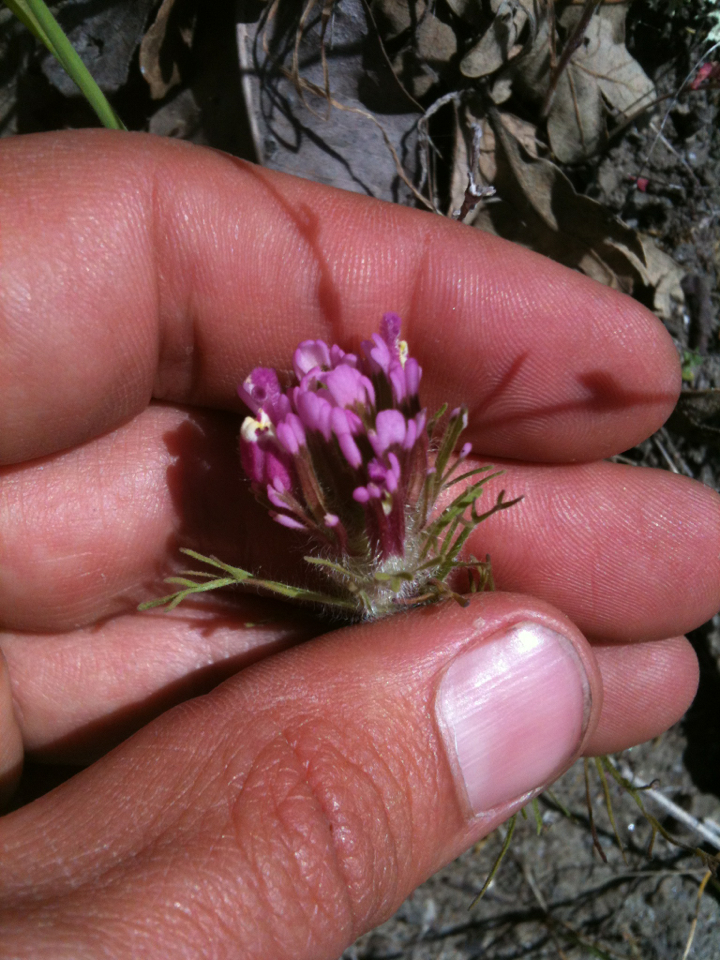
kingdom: Plantae
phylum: Tracheophyta
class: Magnoliopsida
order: Lamiales
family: Orobanchaceae
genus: Castilleja
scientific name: Castilleja exserta
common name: Purple owl-clover
